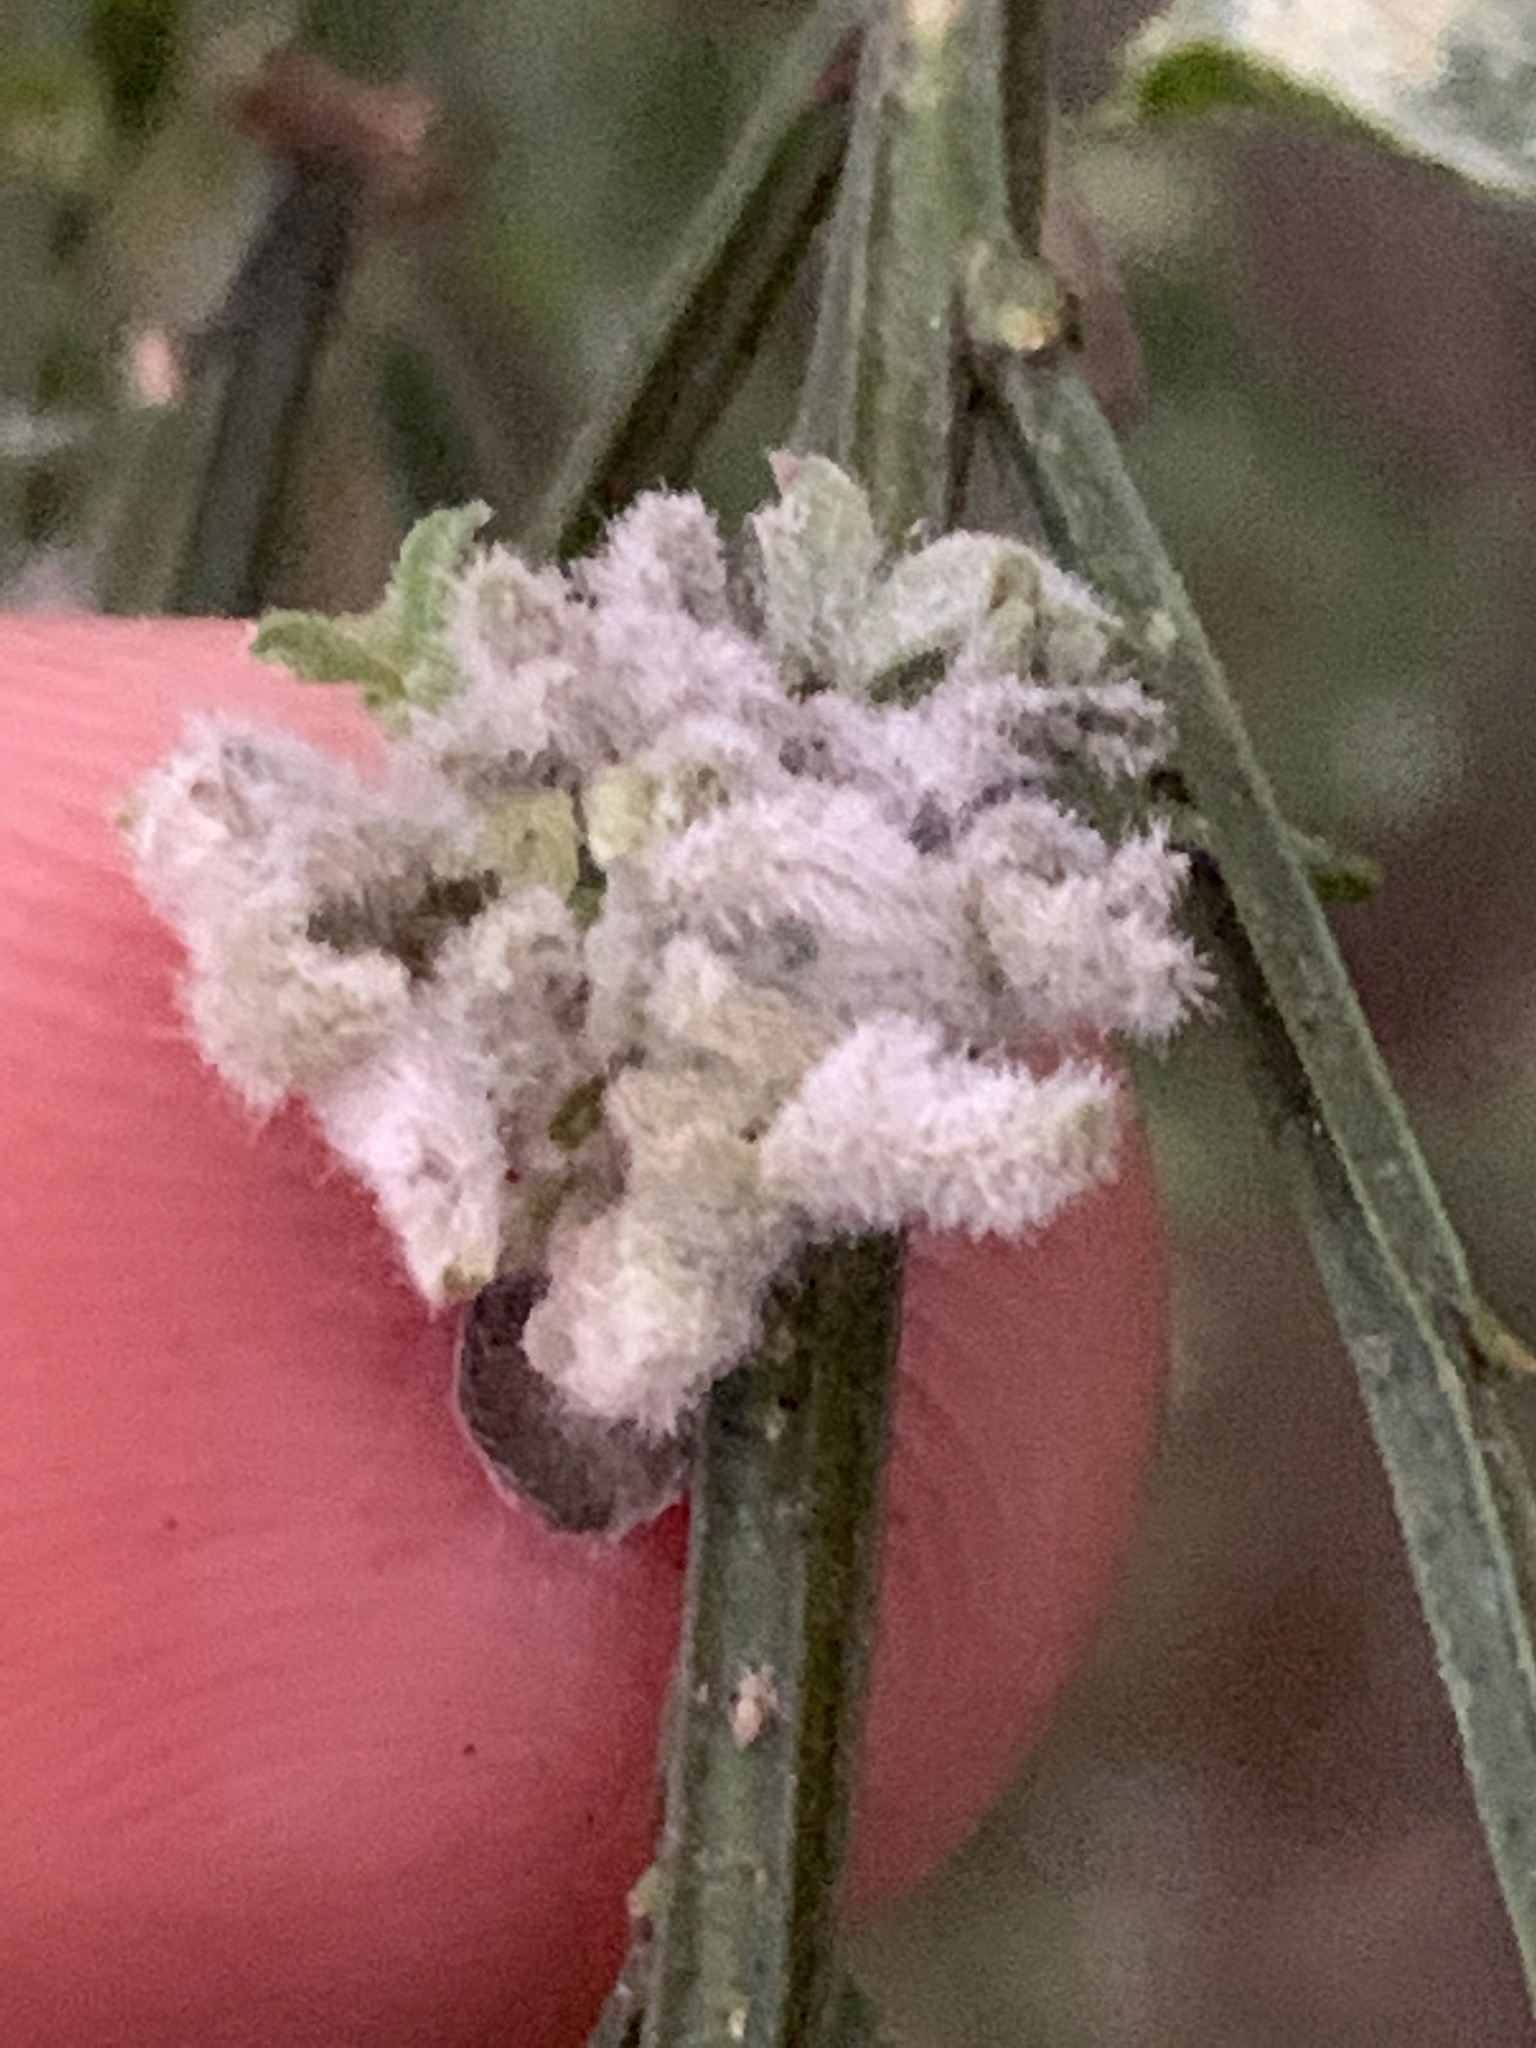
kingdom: Animalia
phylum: Arthropoda
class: Arachnida
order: Trombidiformes
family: Eriophyidae
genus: Aceria
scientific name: Aceria genistae
